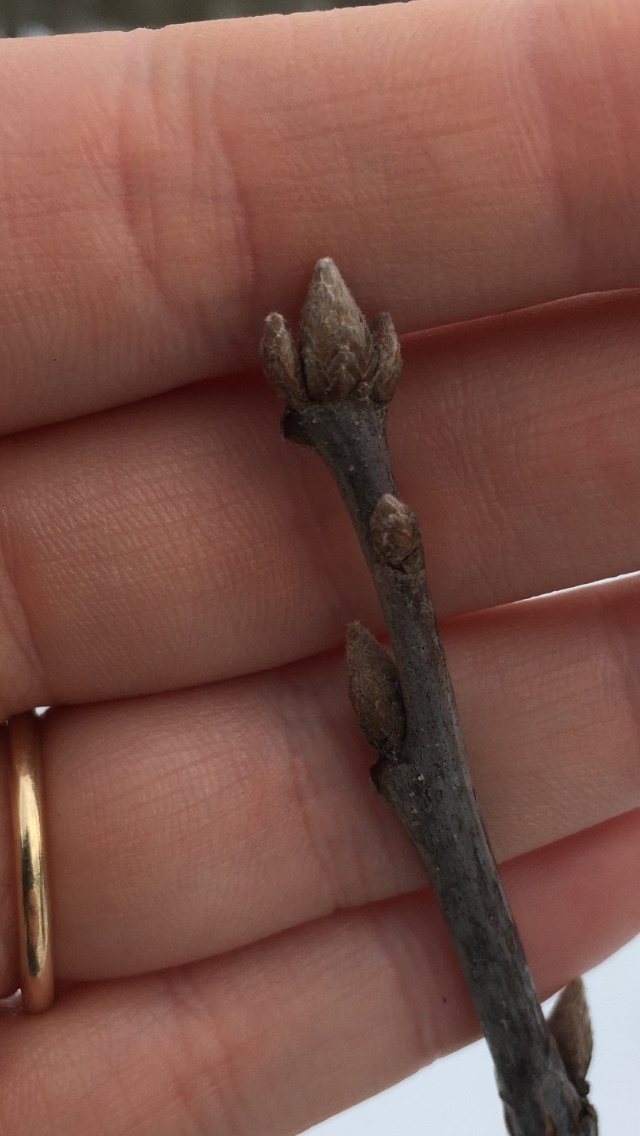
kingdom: Plantae
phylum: Tracheophyta
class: Magnoliopsida
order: Fagales
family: Fagaceae
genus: Quercus
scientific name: Quercus velutina
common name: Black oak
